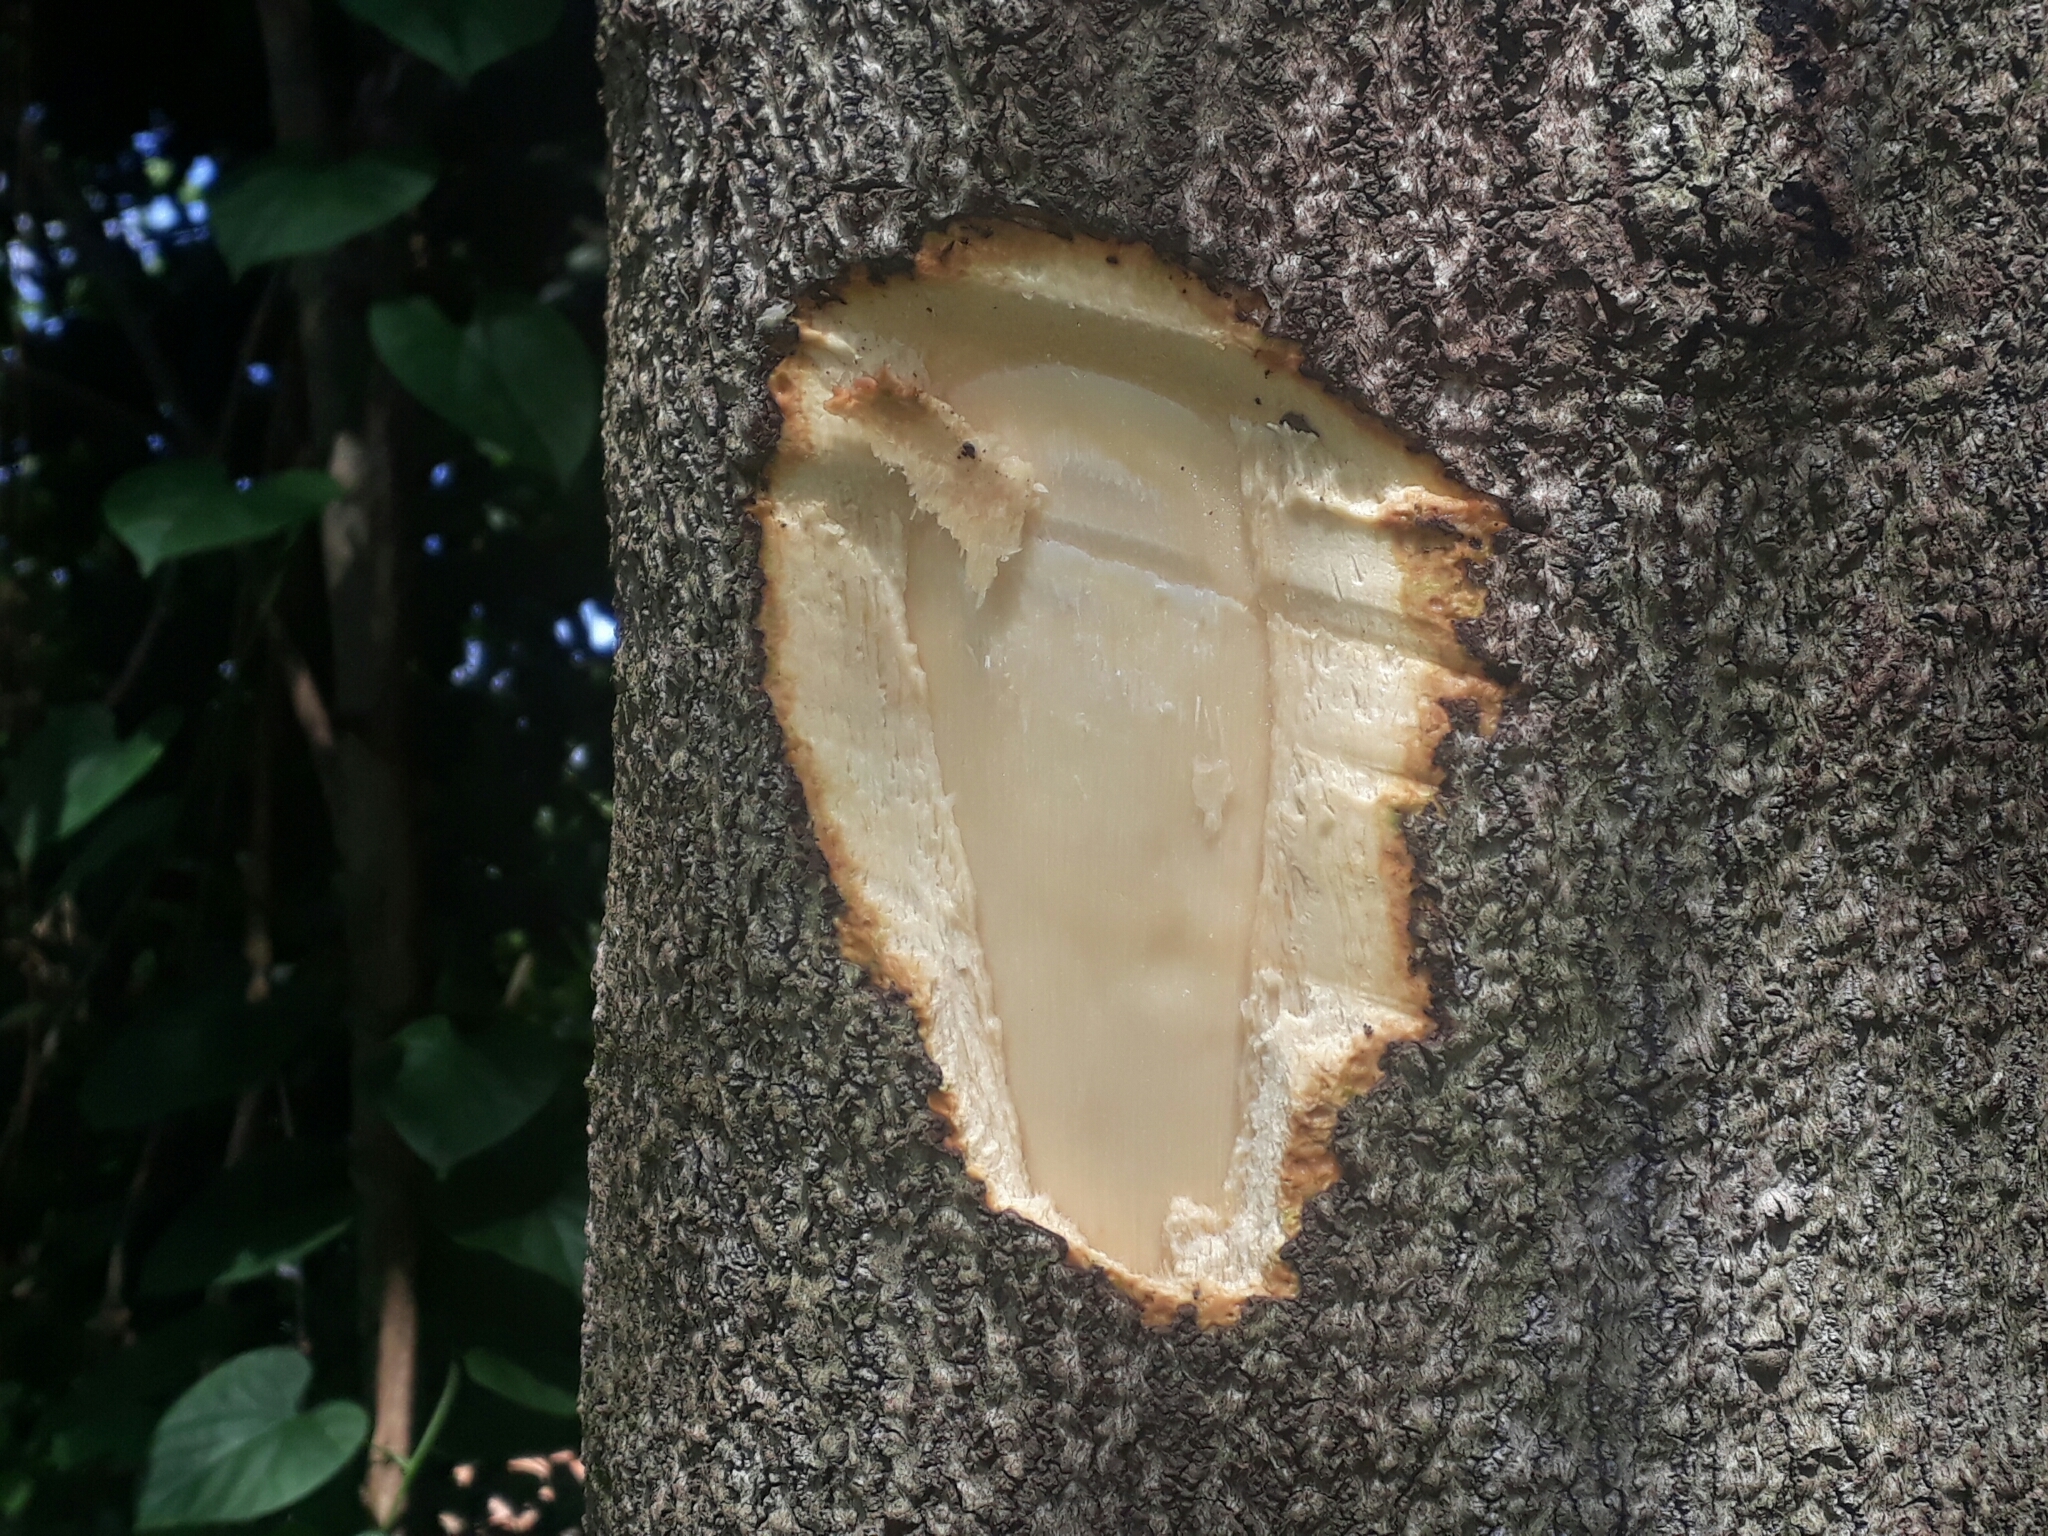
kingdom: Plantae
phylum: Tracheophyta
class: Magnoliopsida
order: Laurales
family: Lauraceae
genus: Ocotea
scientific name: Ocotea puberula
